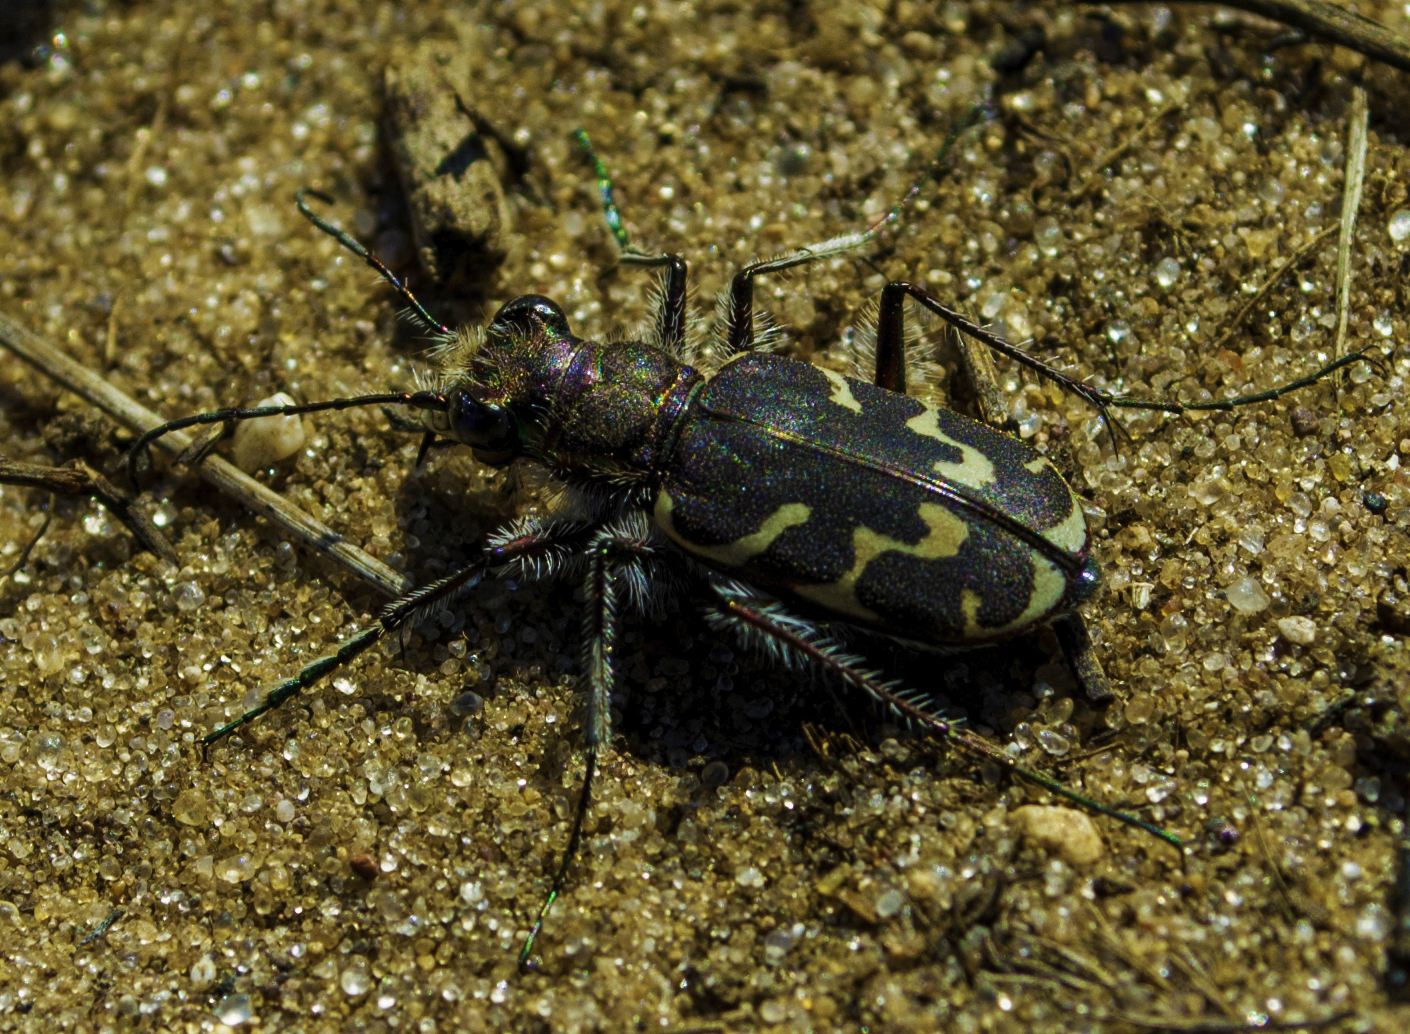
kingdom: Animalia
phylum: Arthropoda
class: Insecta
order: Coleoptera
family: Carabidae
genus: Cicindela
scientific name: Cicindela tranquebarica
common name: Oblique-lined tiger beetle
